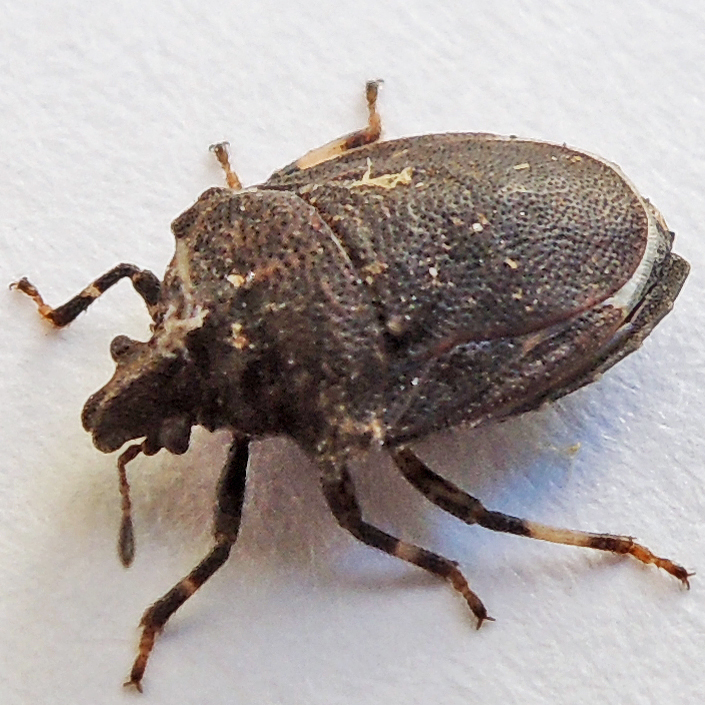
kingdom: Animalia
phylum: Arthropoda
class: Insecta
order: Hemiptera
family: Pentatomidae
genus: Amaurochrous
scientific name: Amaurochrous cinctipes
